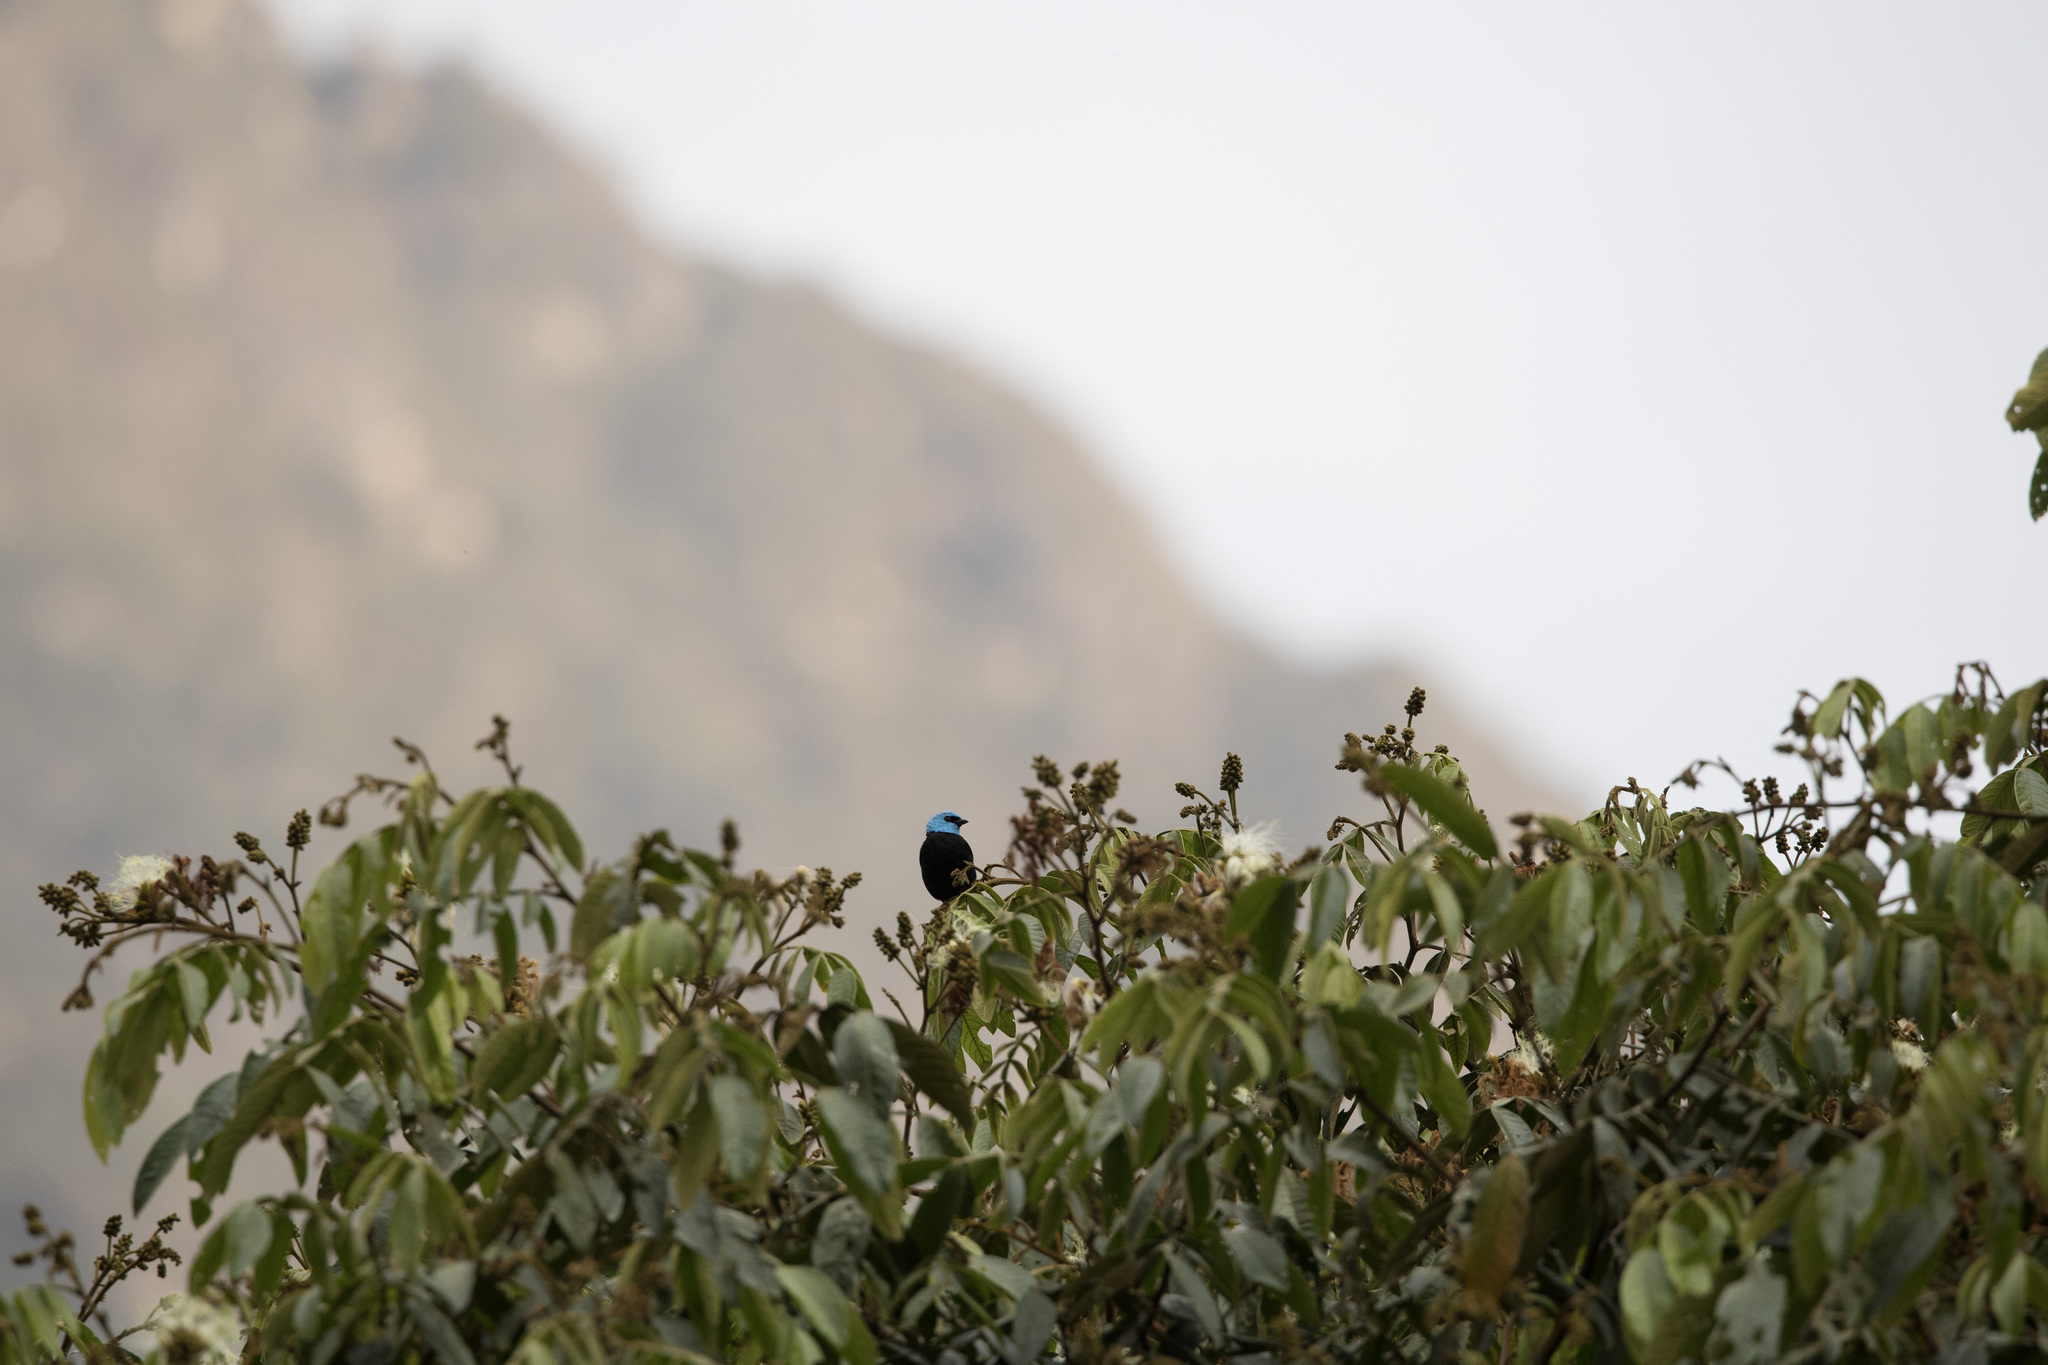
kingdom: Animalia
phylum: Chordata
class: Aves
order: Passeriformes
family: Thraupidae
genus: Stilpnia
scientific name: Stilpnia cyanicollis
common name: Blue-necked tanager
